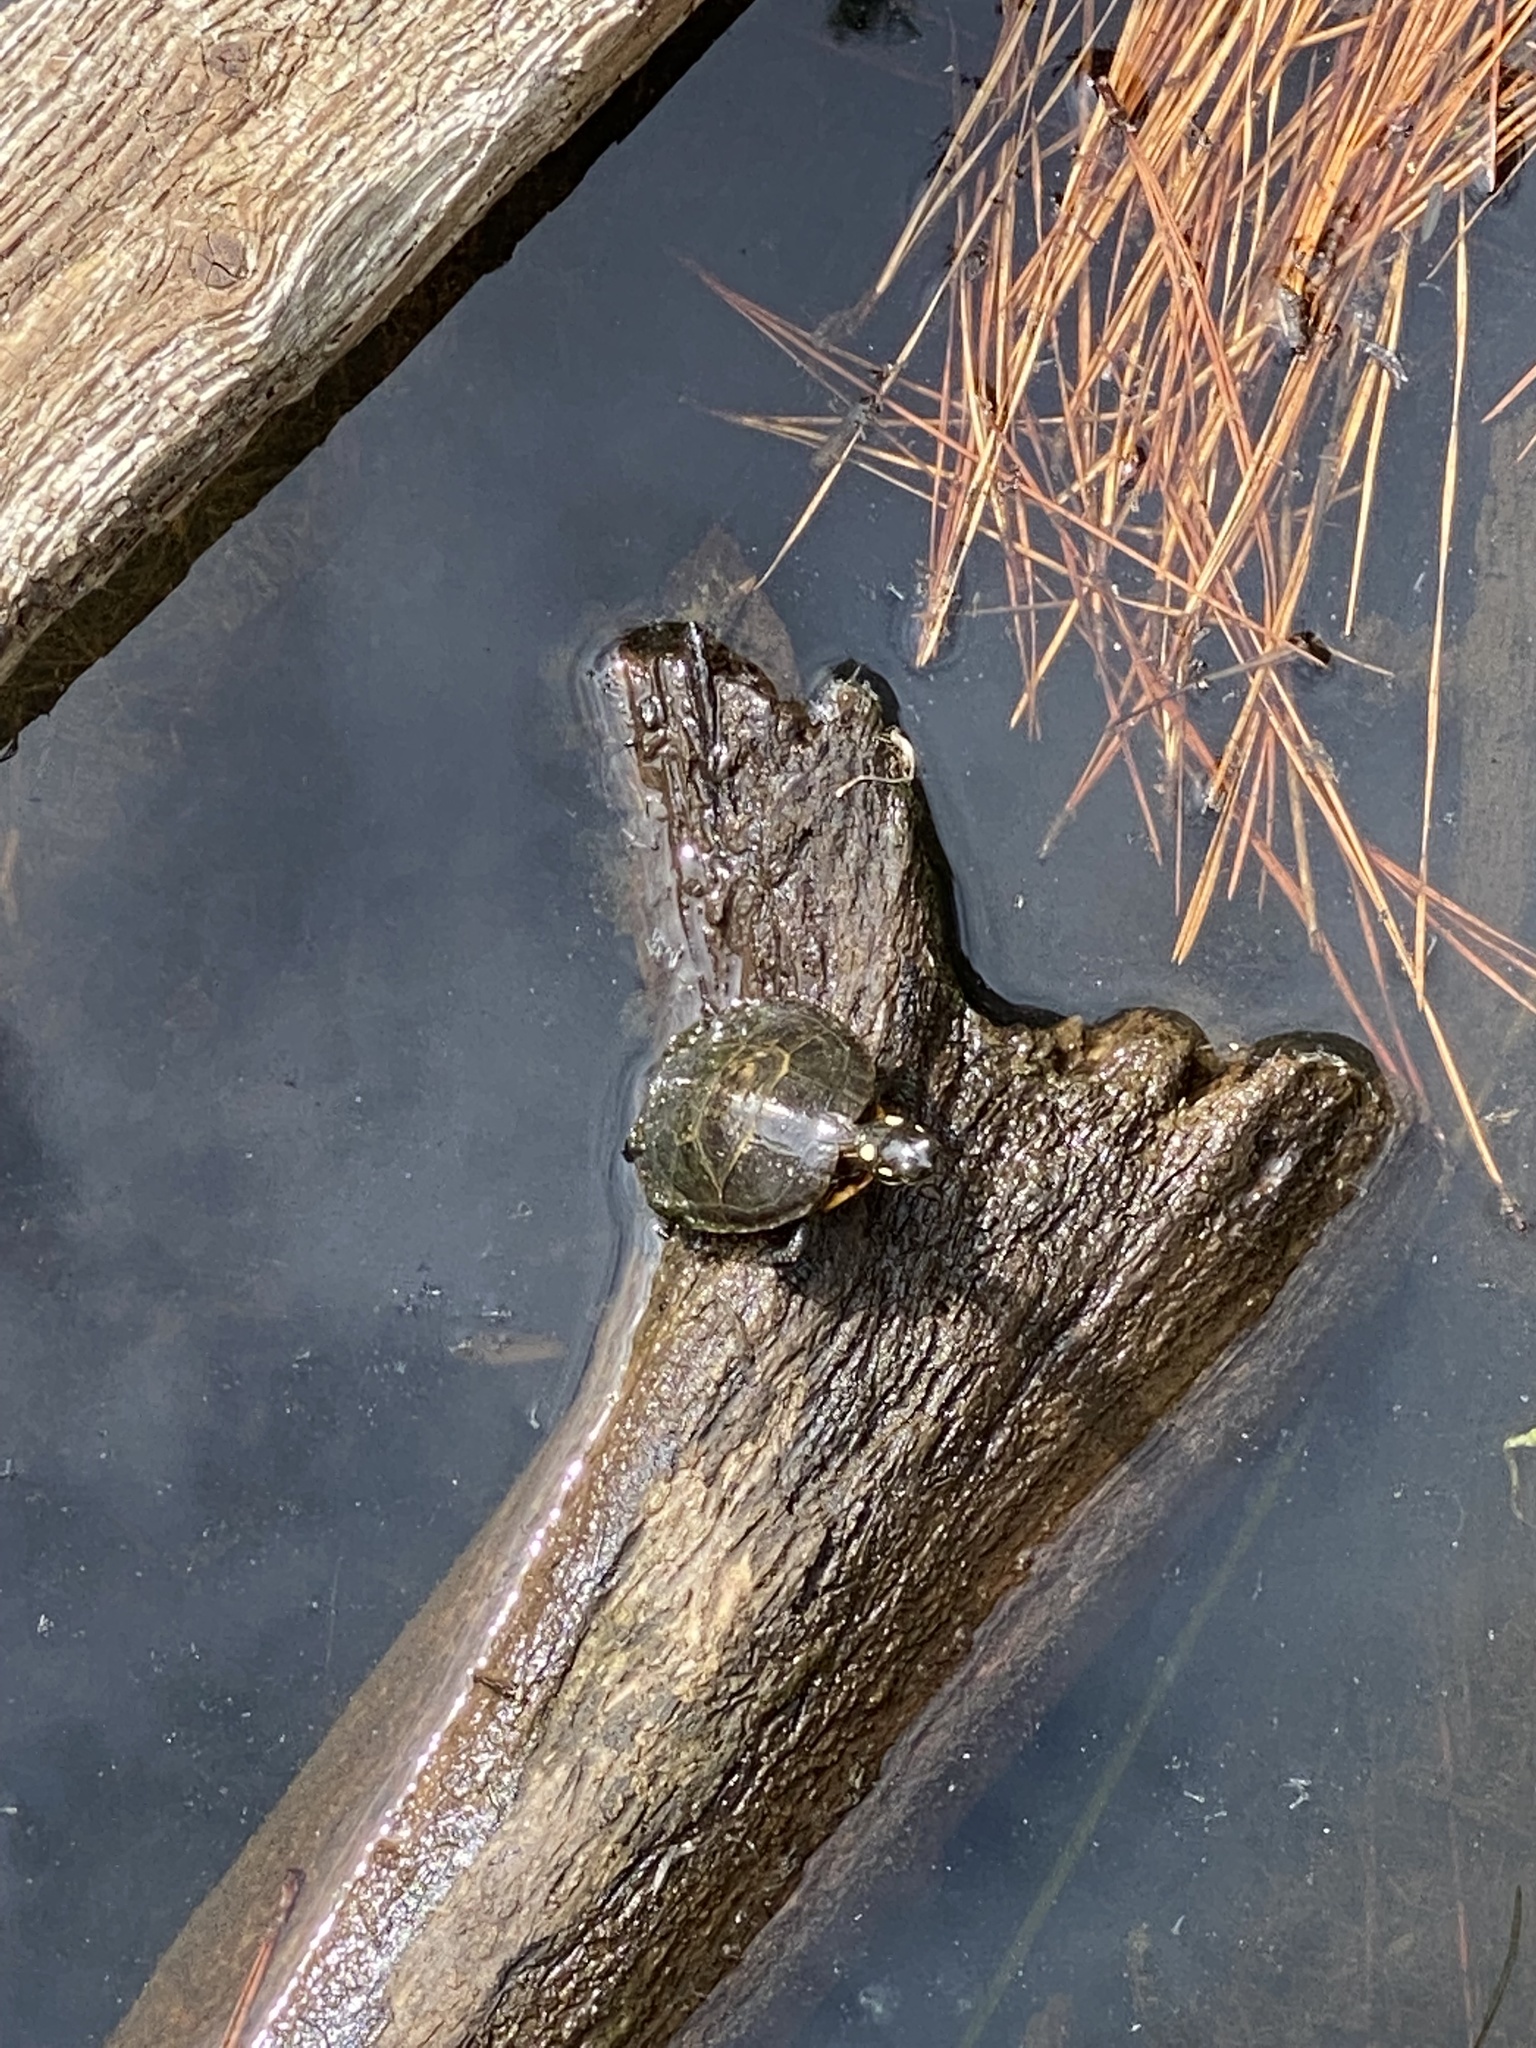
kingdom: Animalia
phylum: Chordata
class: Testudines
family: Emydidae
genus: Chrysemys
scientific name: Chrysemys picta
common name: Painted turtle
